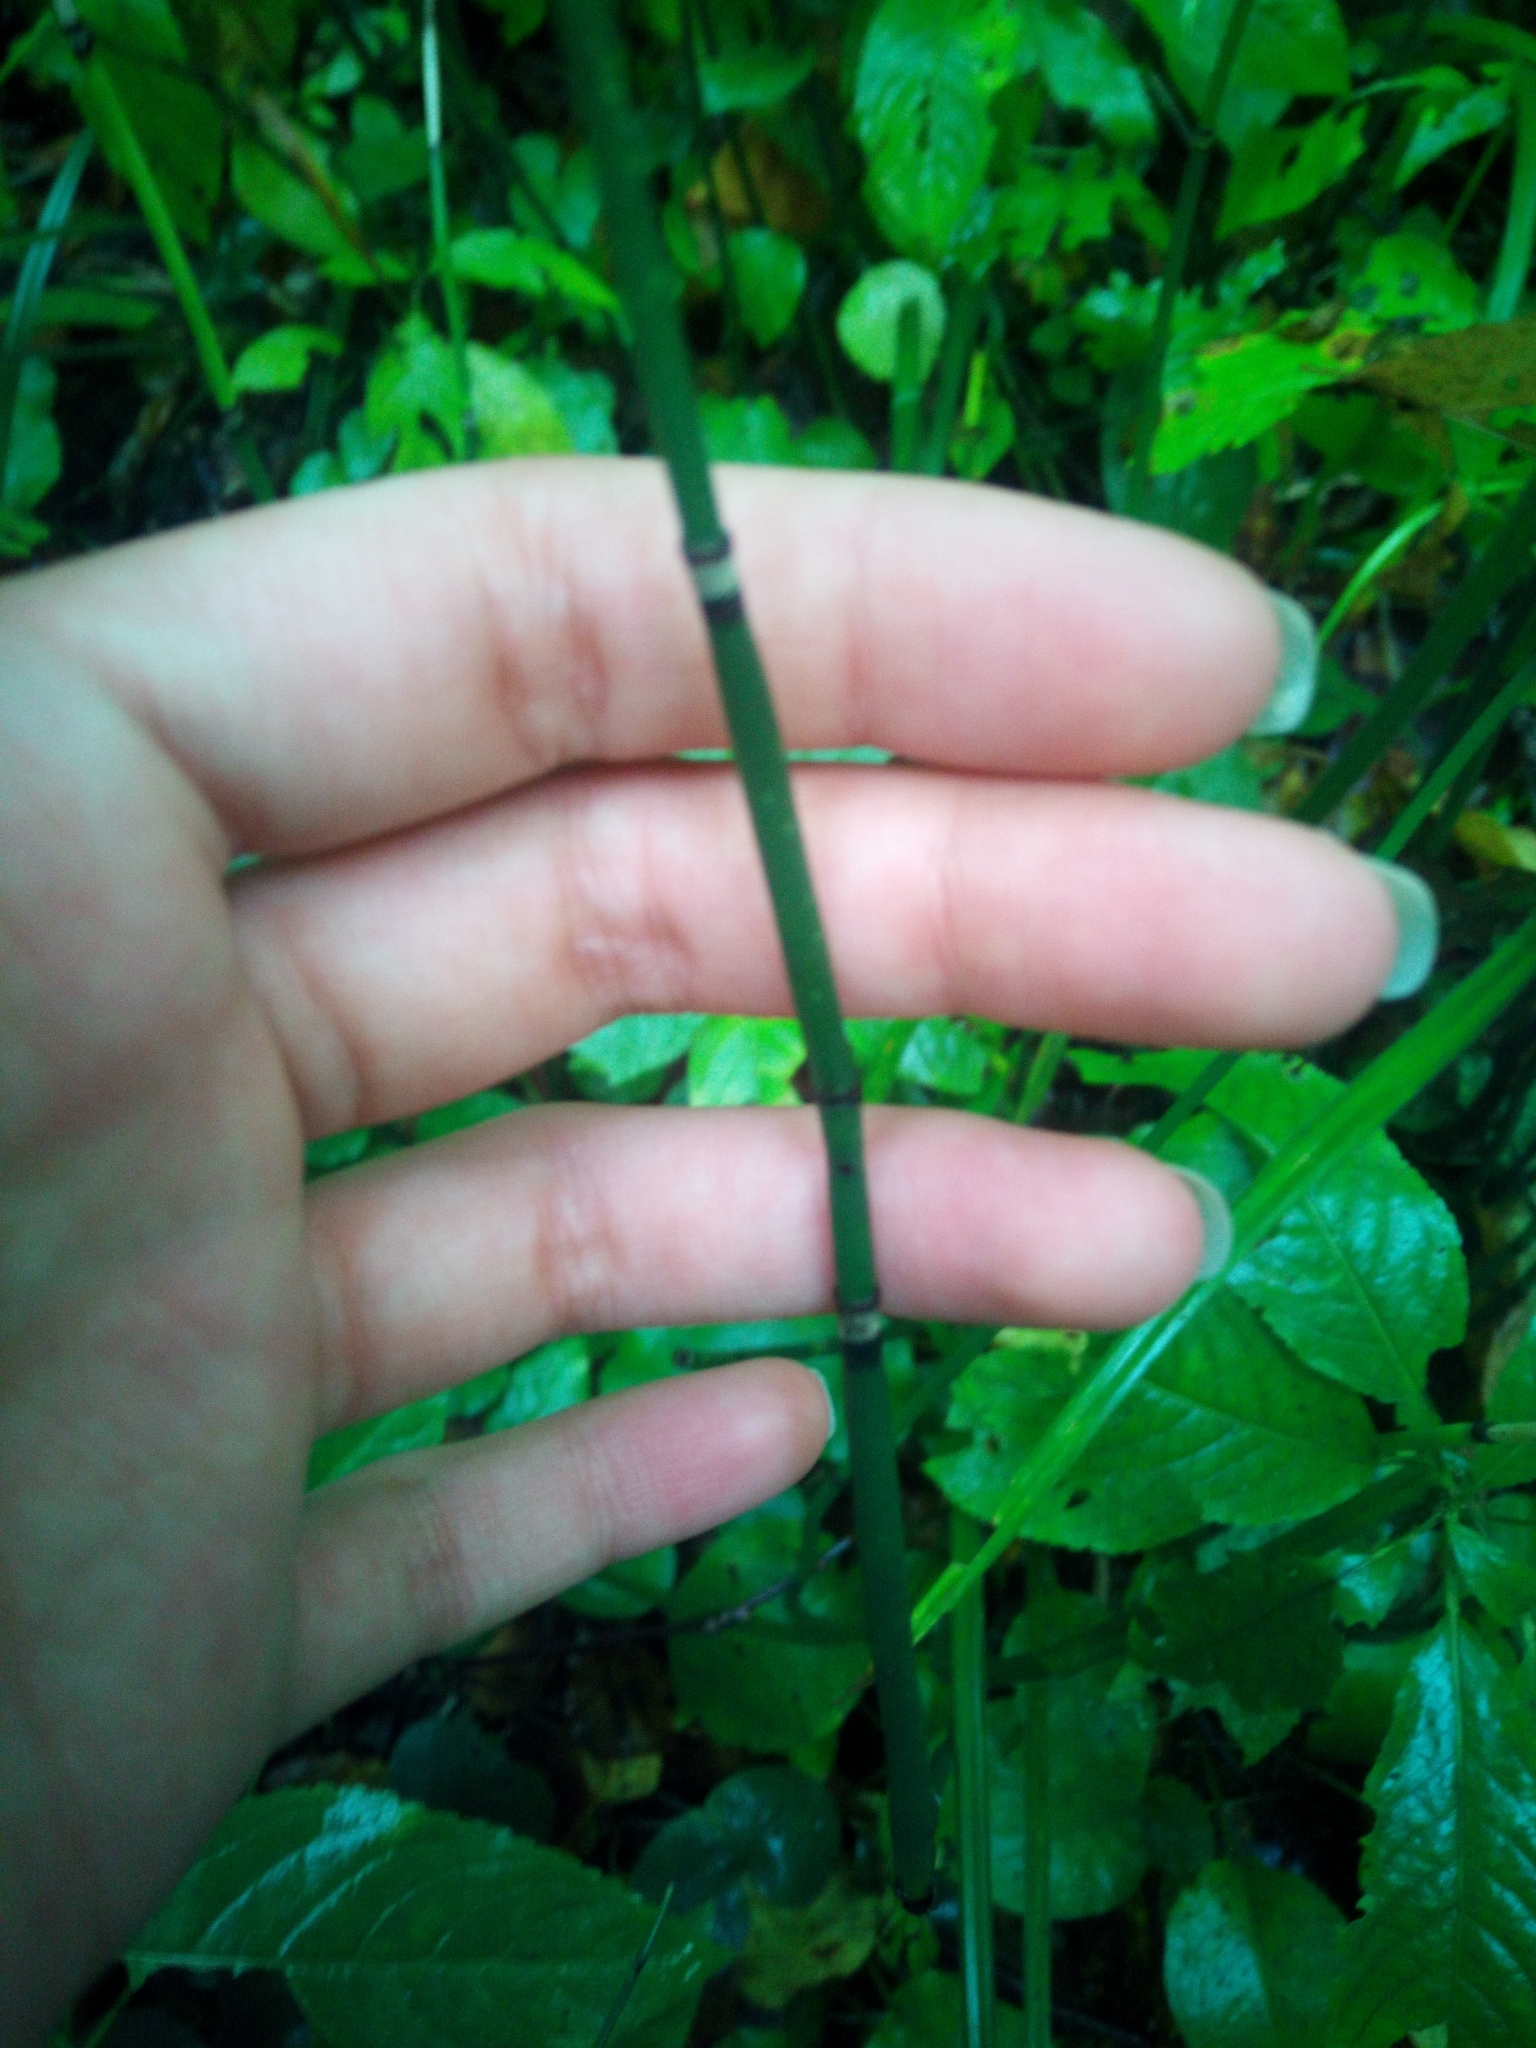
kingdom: Plantae
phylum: Tracheophyta
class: Polypodiopsida
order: Equisetales
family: Equisetaceae
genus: Equisetum
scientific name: Equisetum hyemale
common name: Rough horsetail
